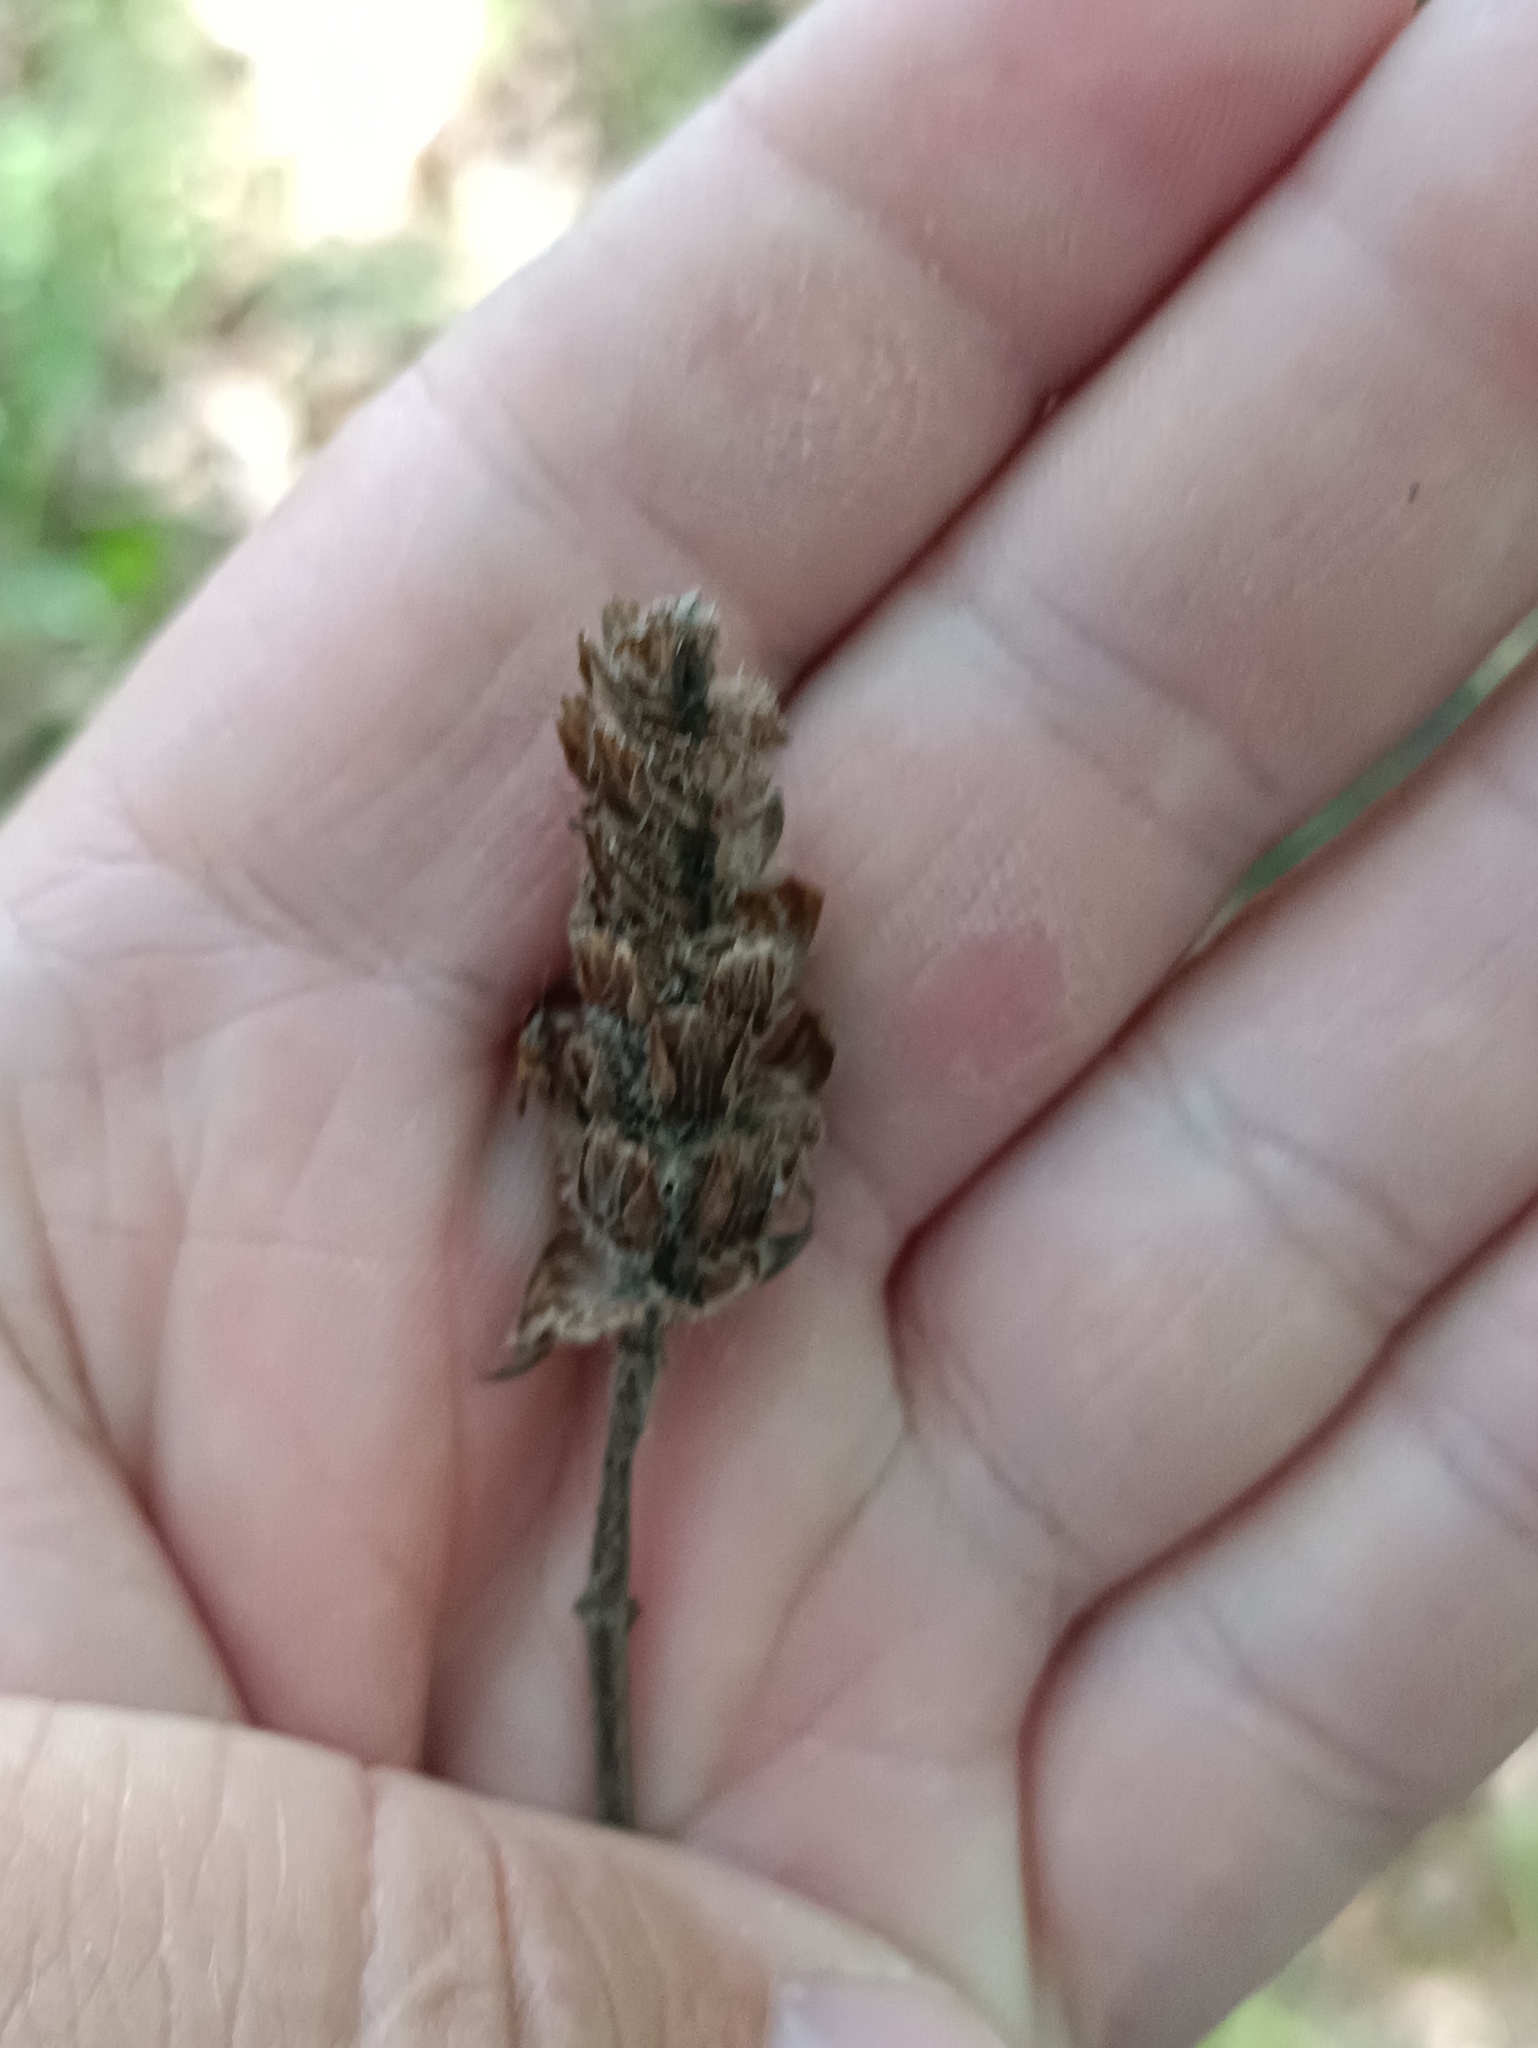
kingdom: Plantae
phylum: Tracheophyta
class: Magnoliopsida
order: Lamiales
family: Lamiaceae
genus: Prunella
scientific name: Prunella vulgaris
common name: Heal-all
